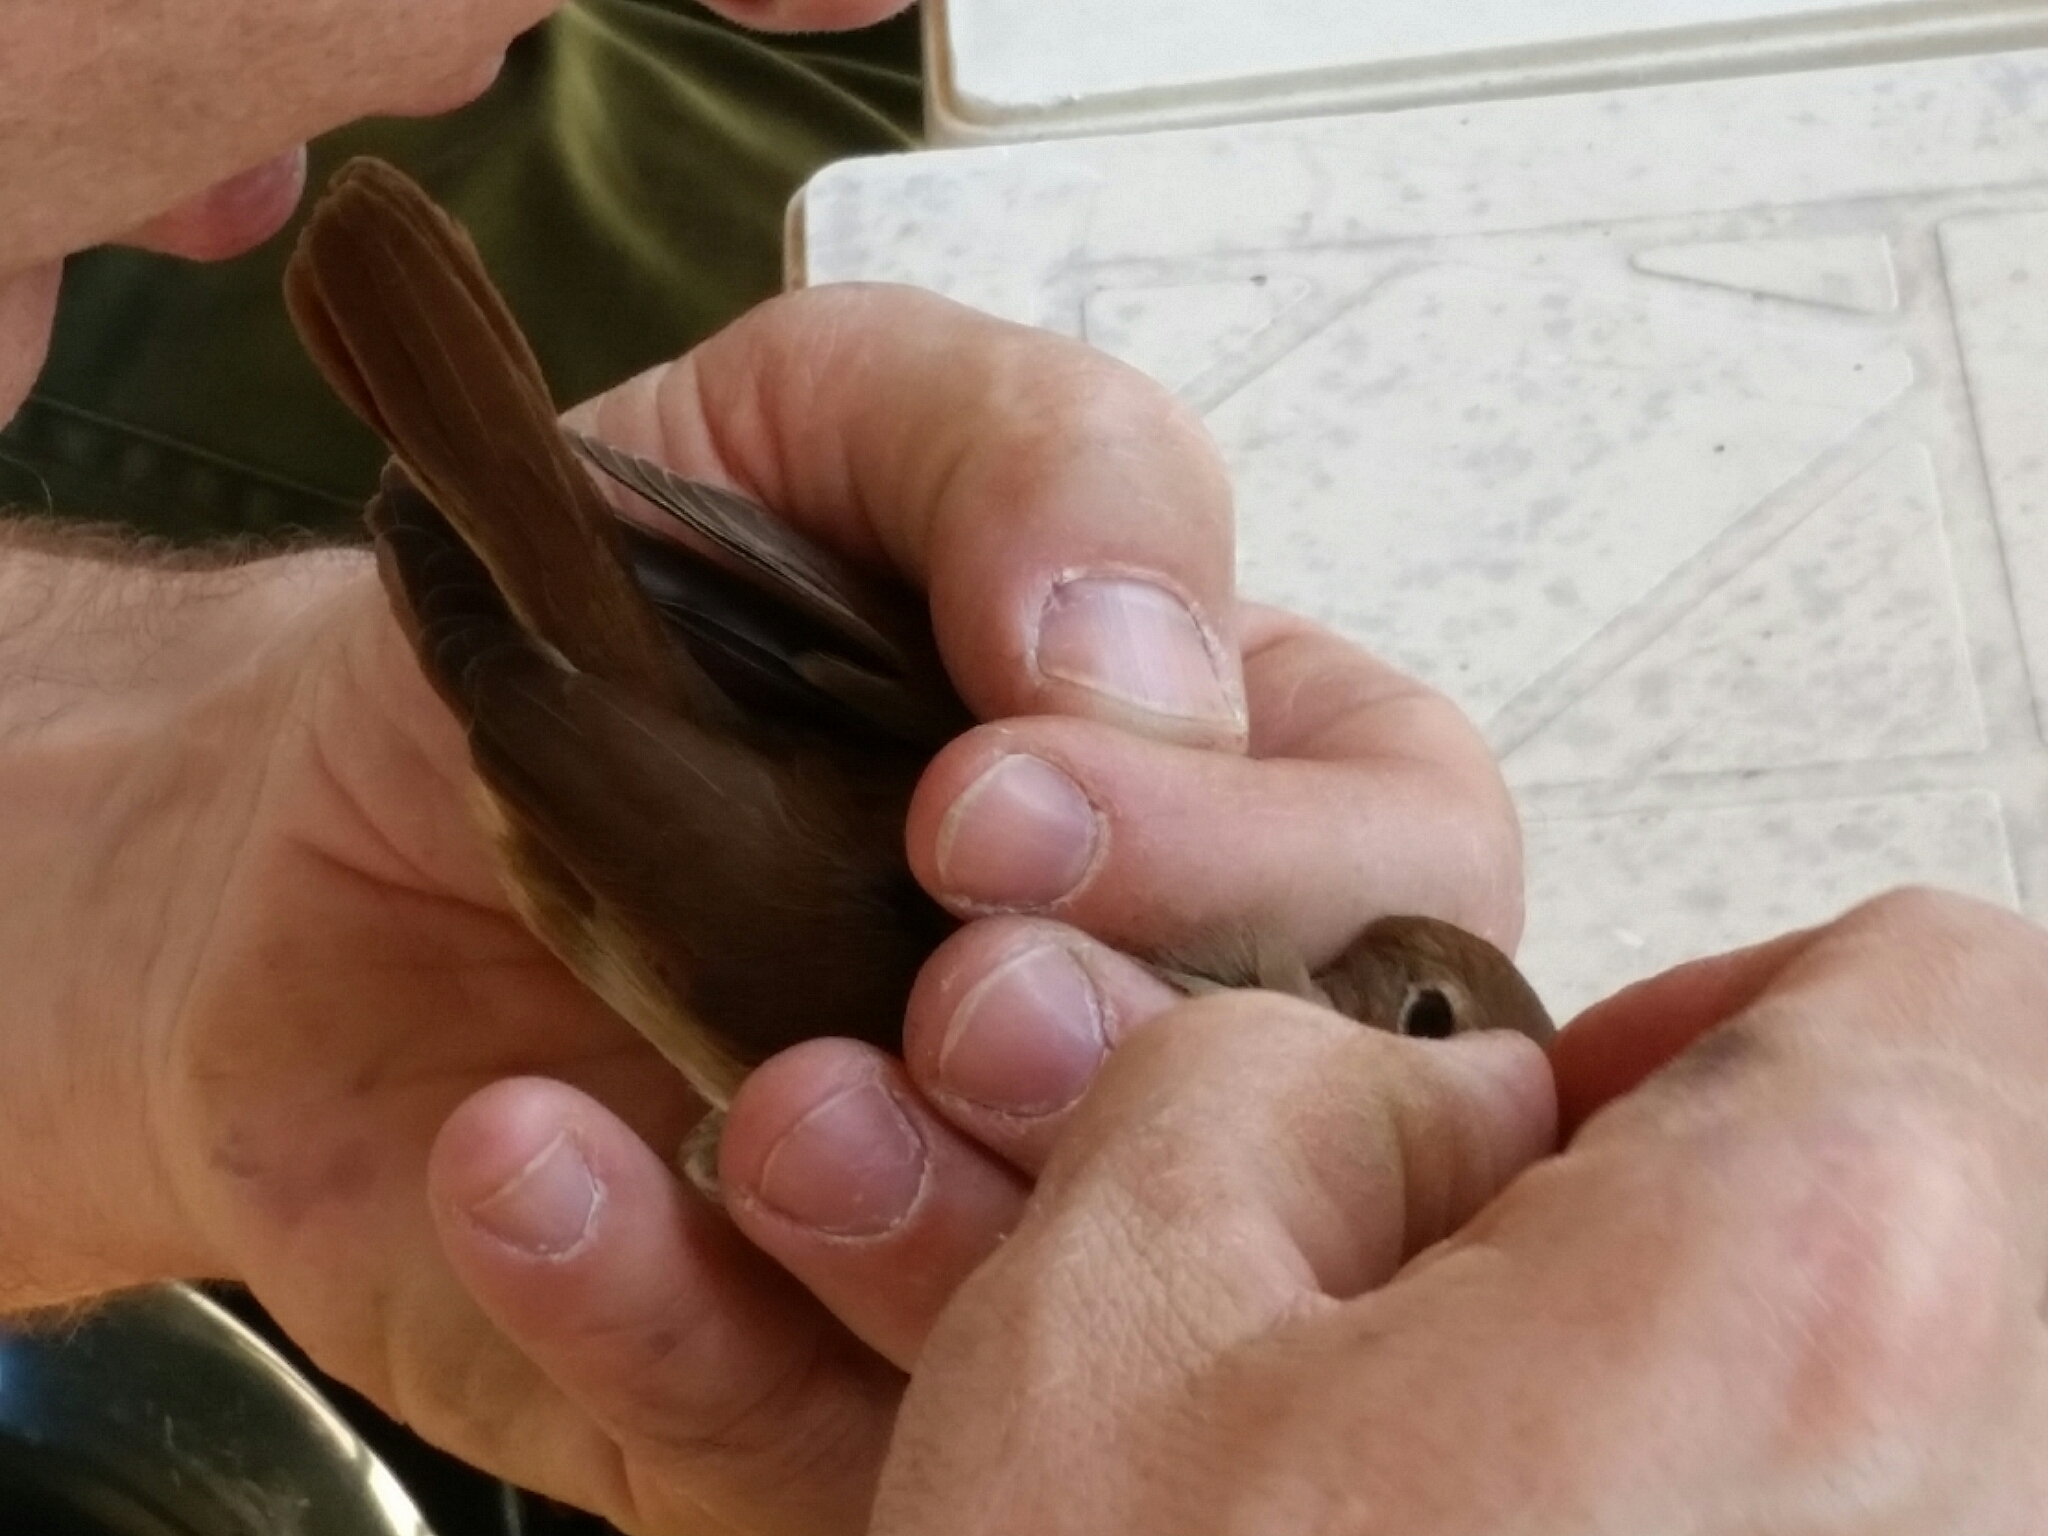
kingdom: Animalia
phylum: Chordata
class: Aves
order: Passeriformes
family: Muscicapidae
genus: Luscinia
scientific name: Luscinia megarhynchos
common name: Common nightingale
